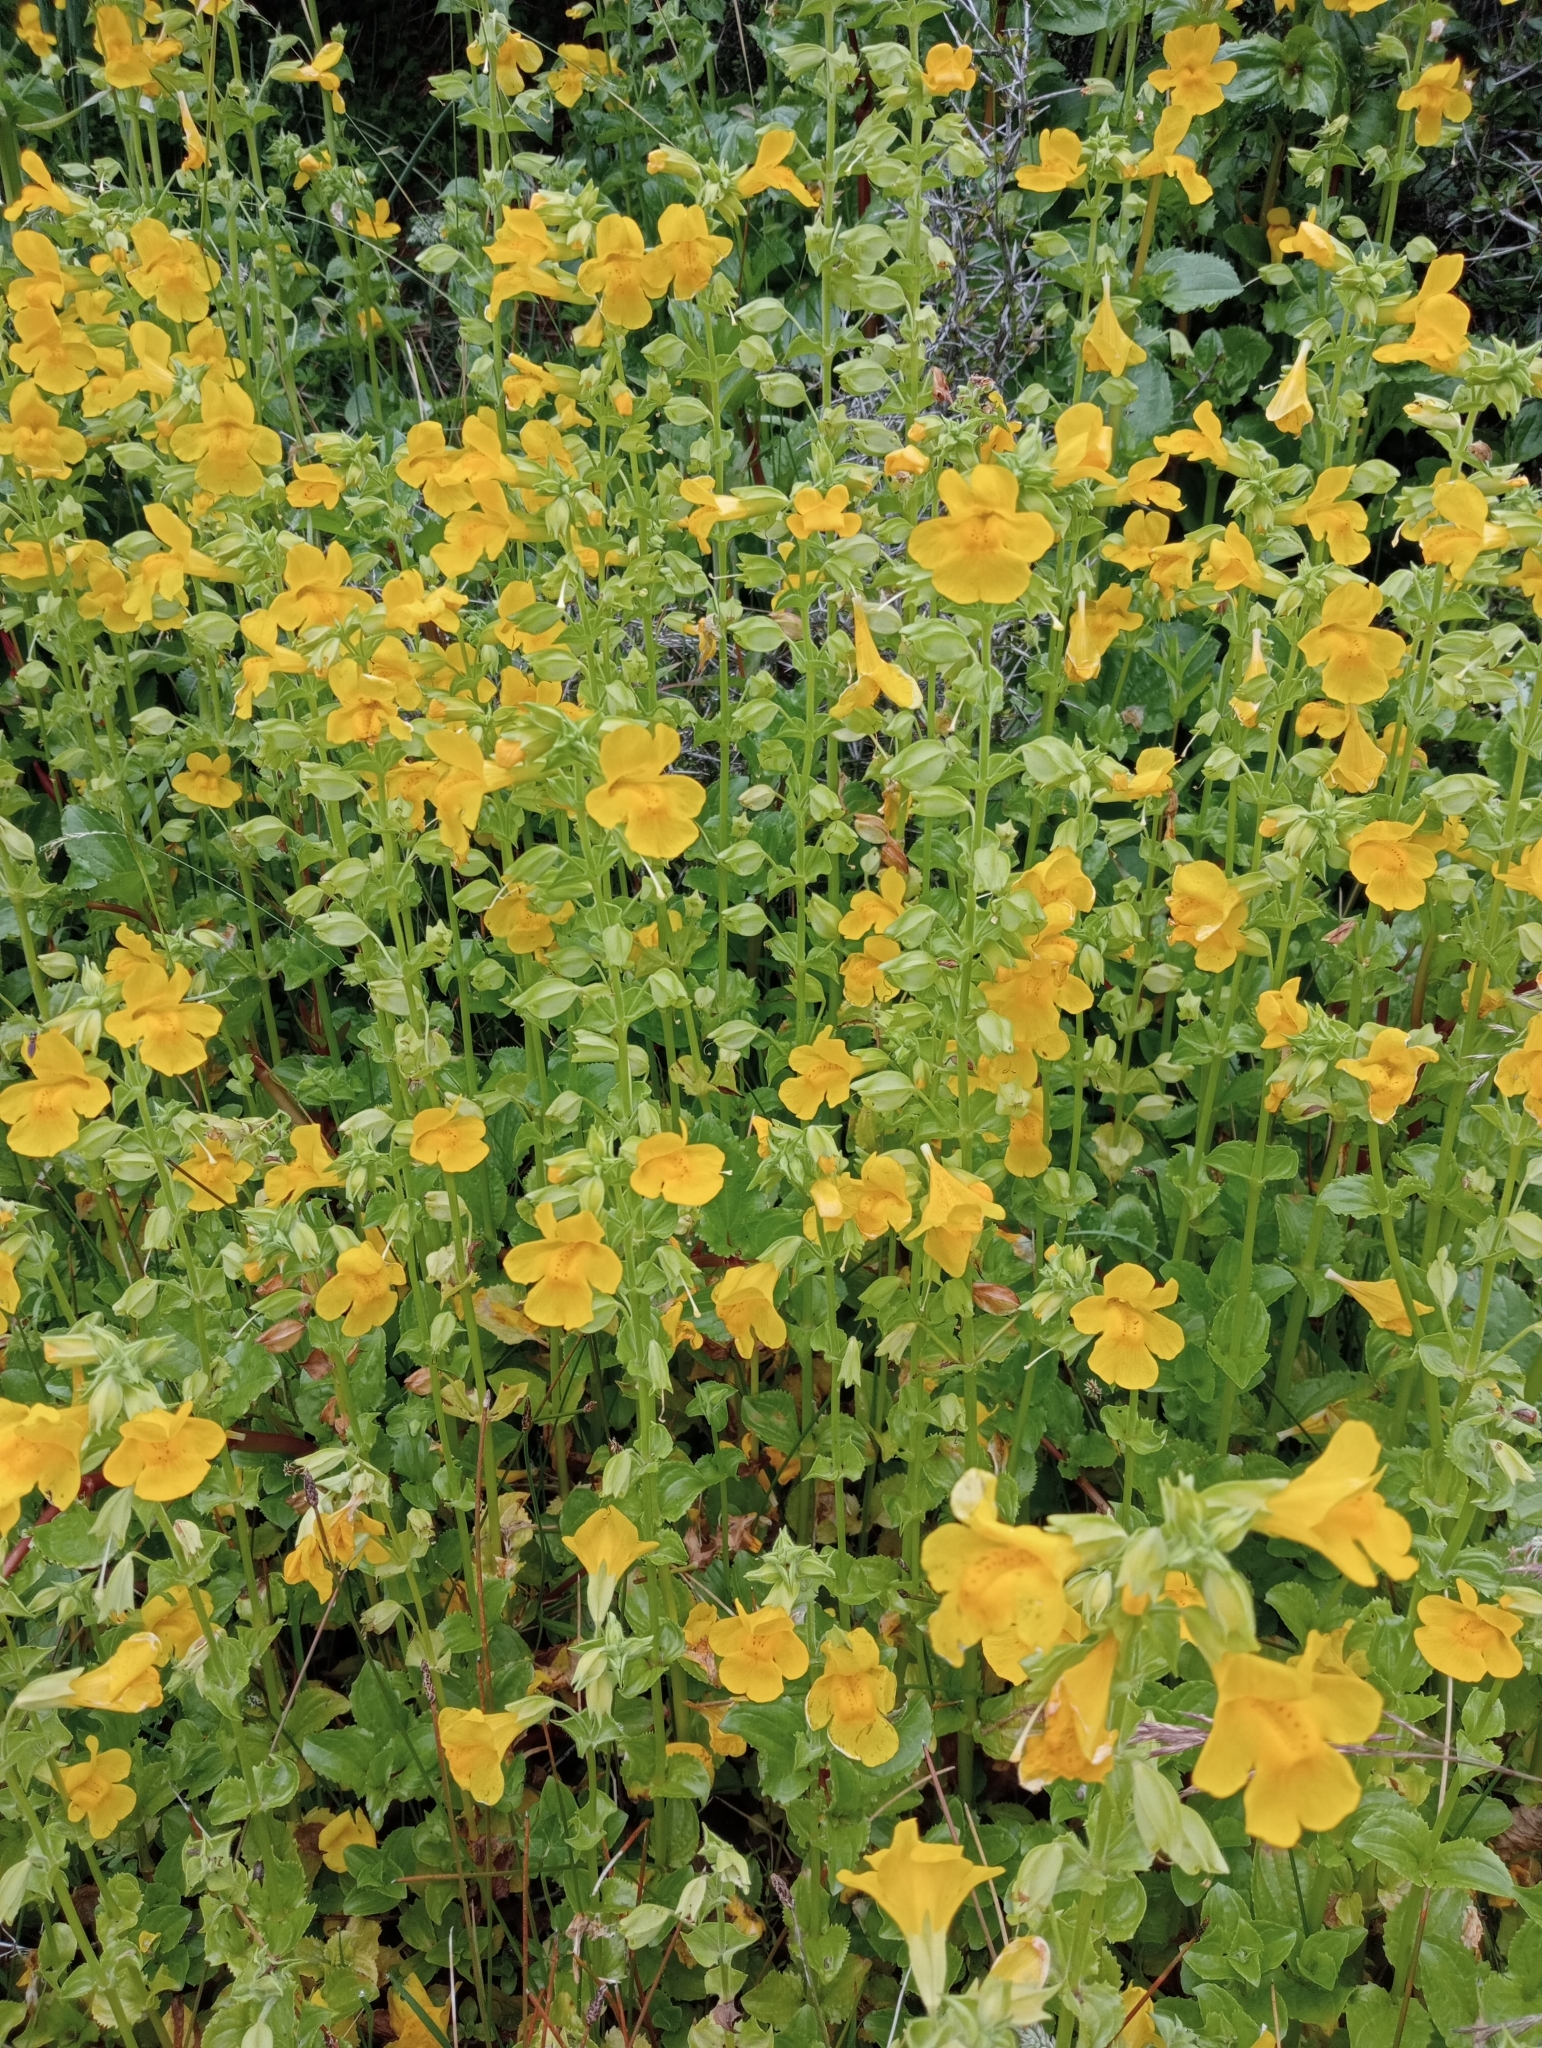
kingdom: Plantae
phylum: Tracheophyta
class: Magnoliopsida
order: Lamiales
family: Phrymaceae
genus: Erythranthe
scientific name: Erythranthe guttata
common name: Monkeyflower
